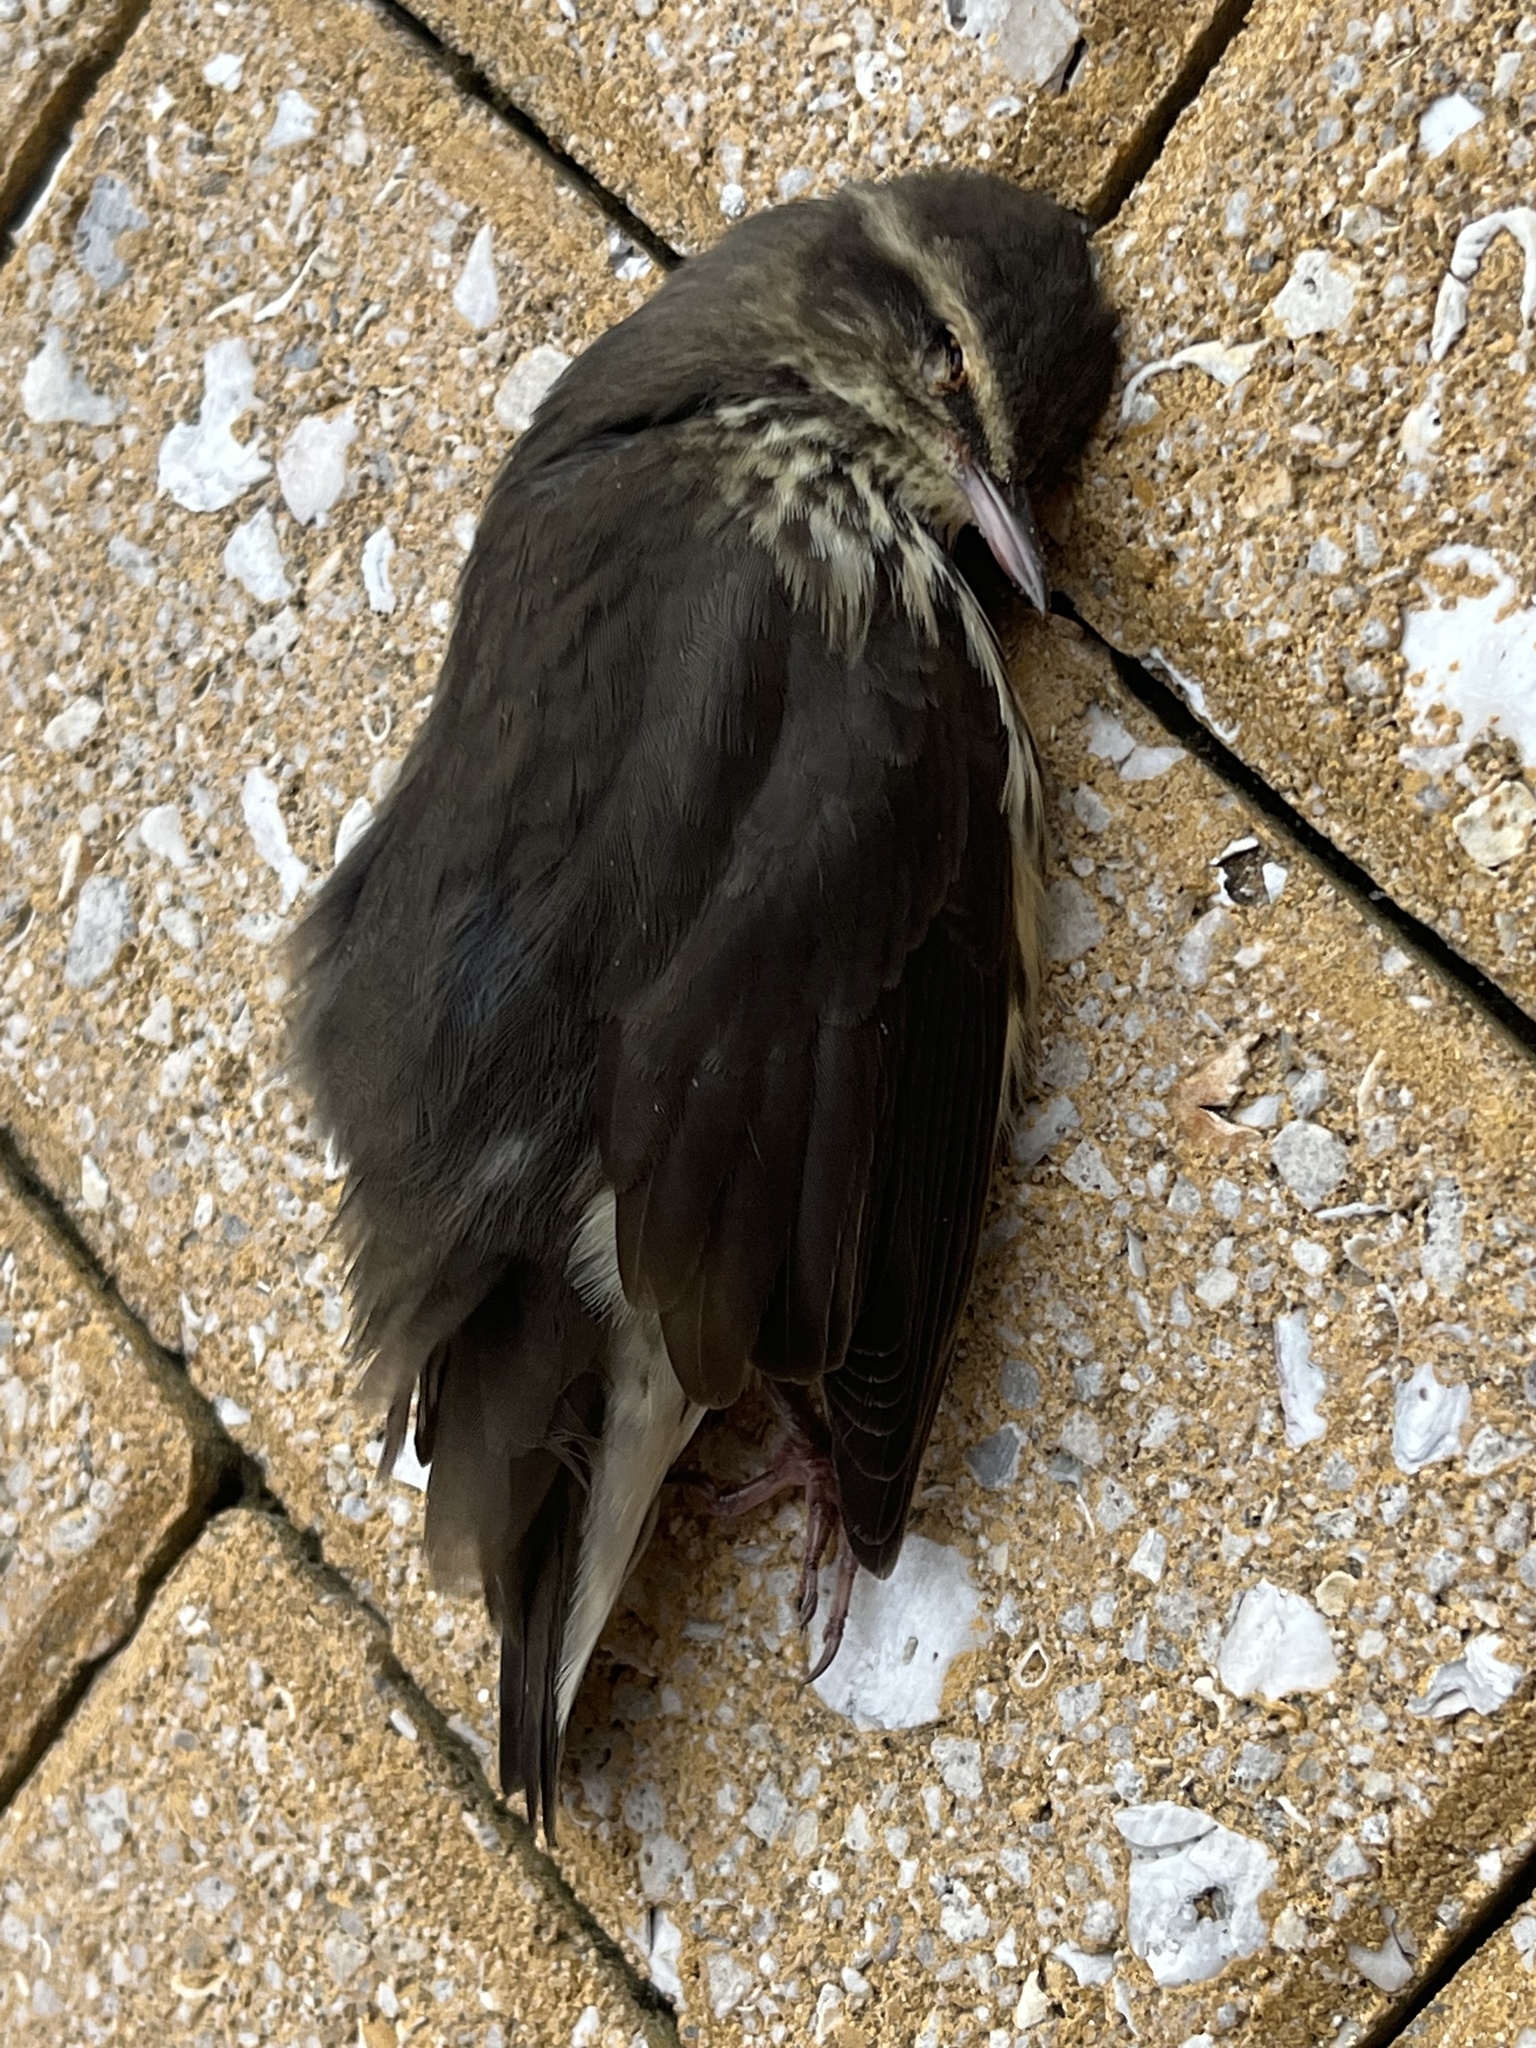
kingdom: Animalia
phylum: Chordata
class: Aves
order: Passeriformes
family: Parulidae
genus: Parkesia
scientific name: Parkesia noveboracensis
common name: Northern waterthrush
